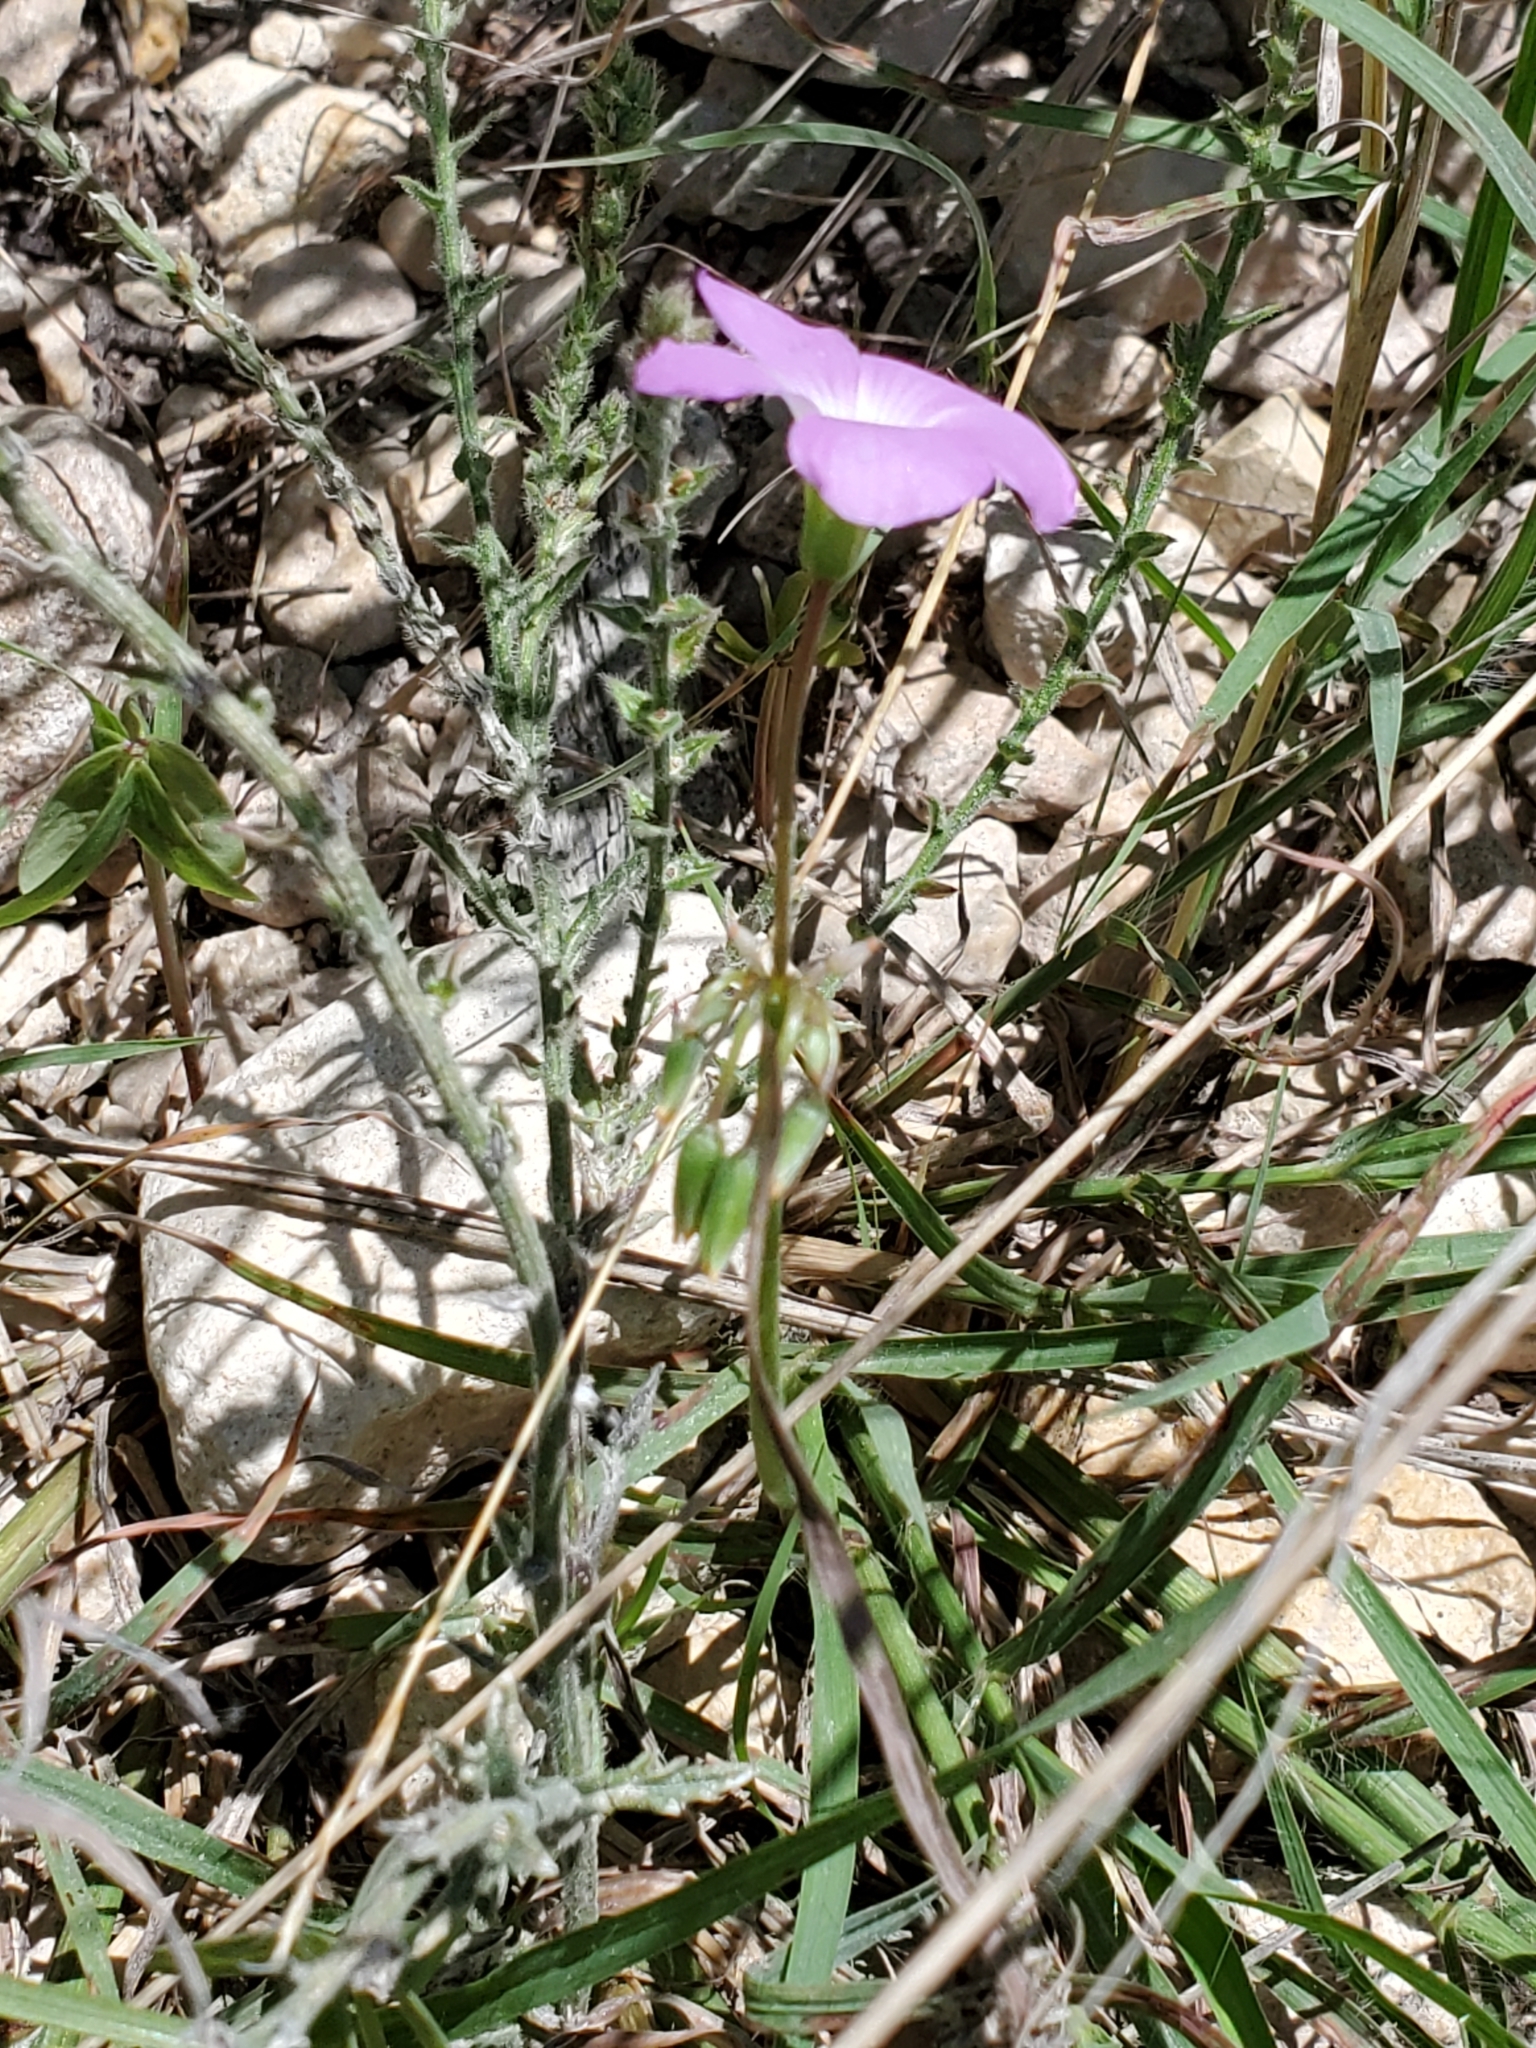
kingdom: Plantae
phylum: Tracheophyta
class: Magnoliopsida
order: Oxalidales
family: Oxalidaceae
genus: Oxalis
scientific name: Oxalis drummondii
